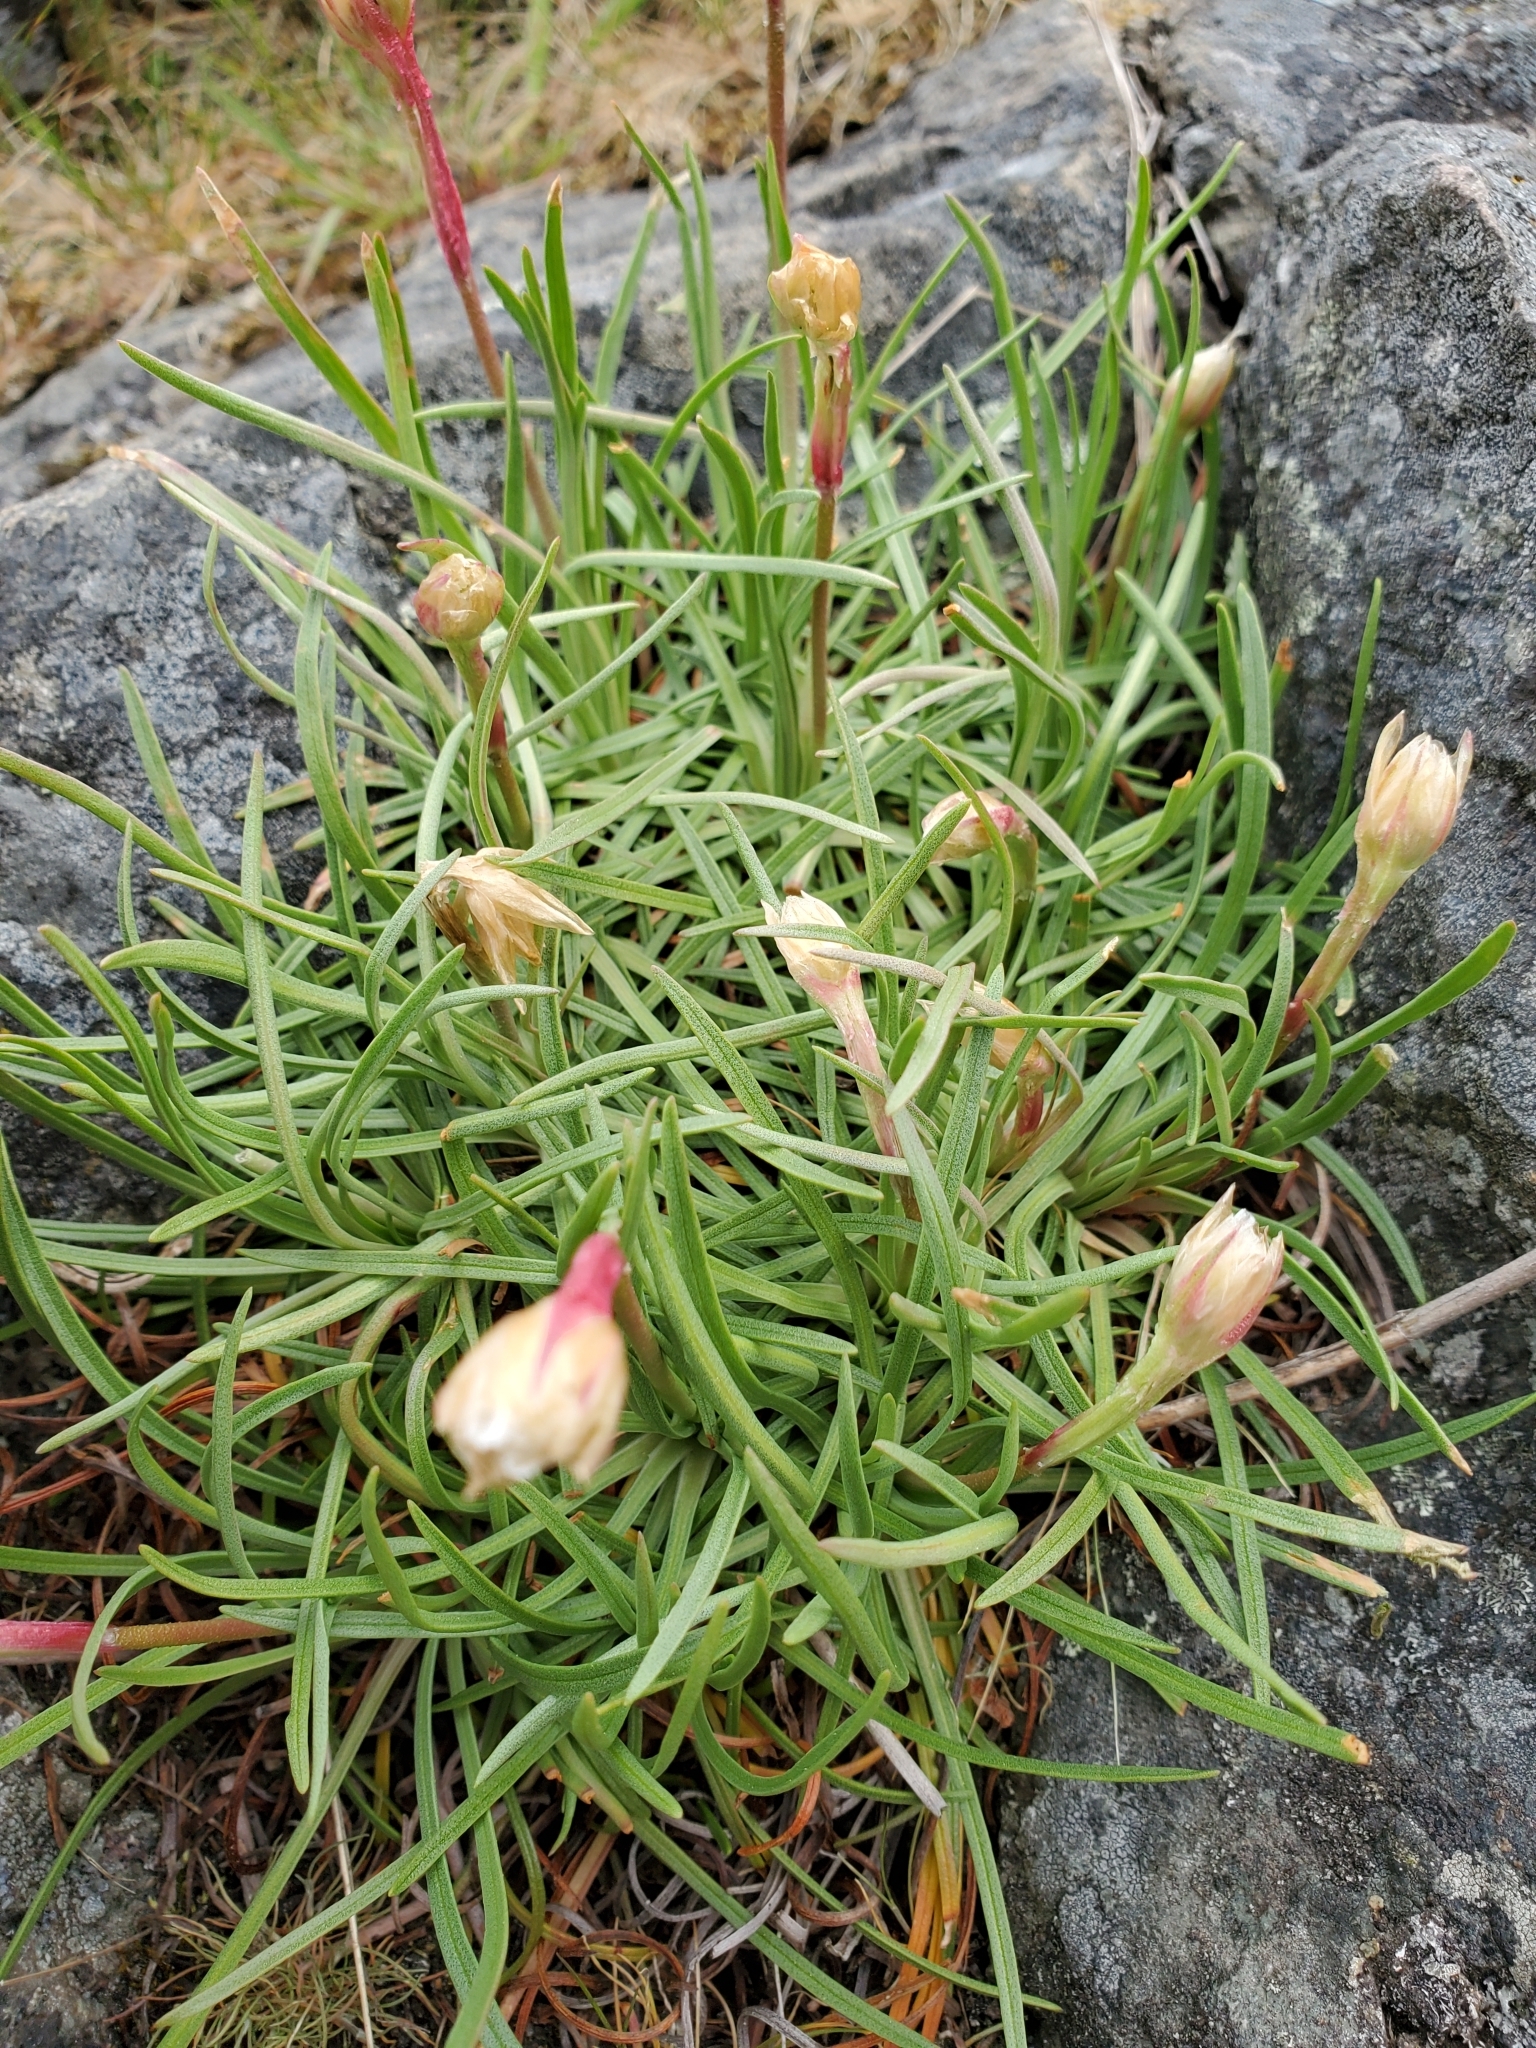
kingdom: Plantae
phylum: Tracheophyta
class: Magnoliopsida
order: Caryophyllales
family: Plumbaginaceae
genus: Armeria
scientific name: Armeria maritima
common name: Thrift
